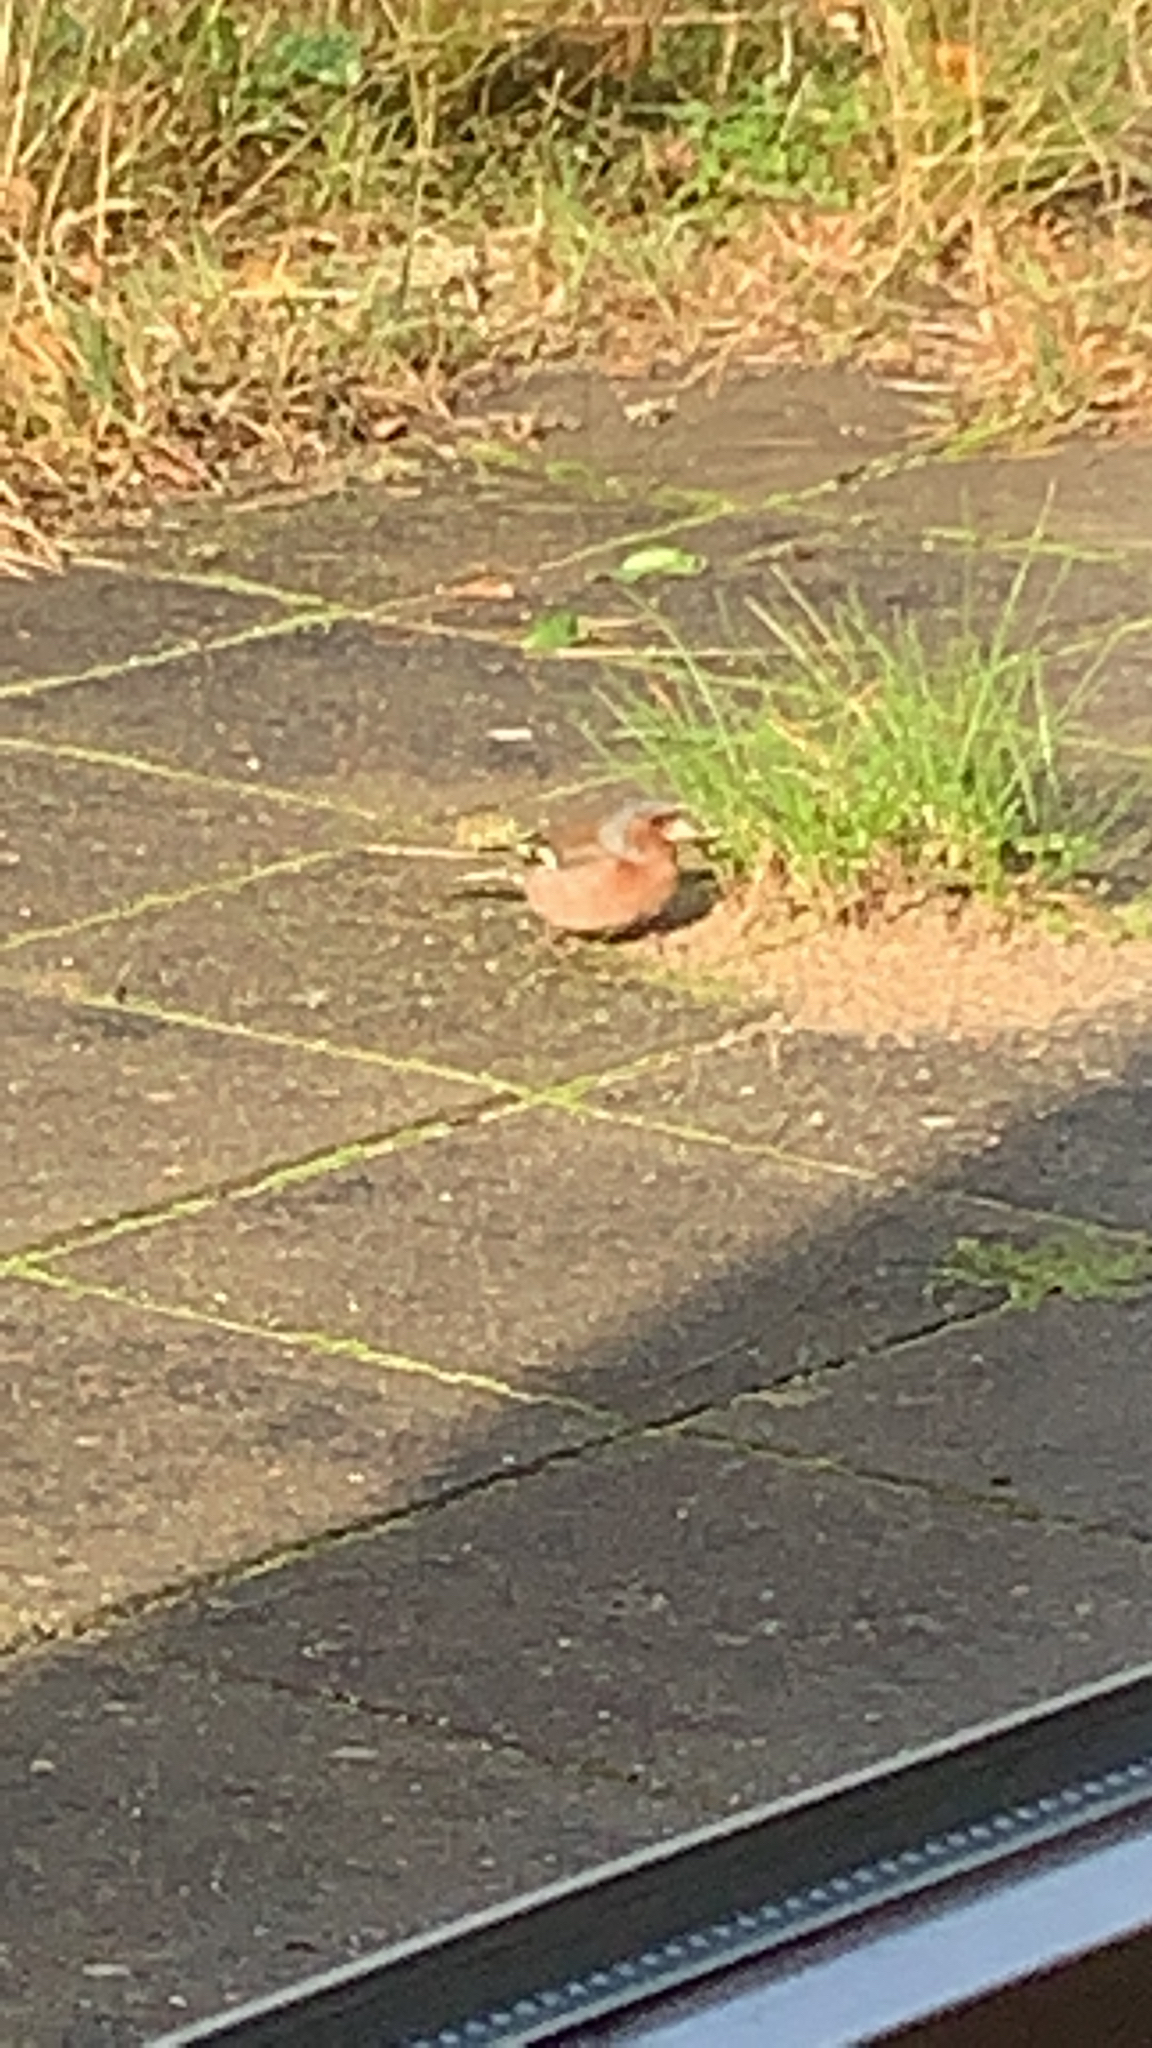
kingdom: Animalia
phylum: Chordata
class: Aves
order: Passeriformes
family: Fringillidae
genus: Fringilla
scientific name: Fringilla coelebs
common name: Common chaffinch
